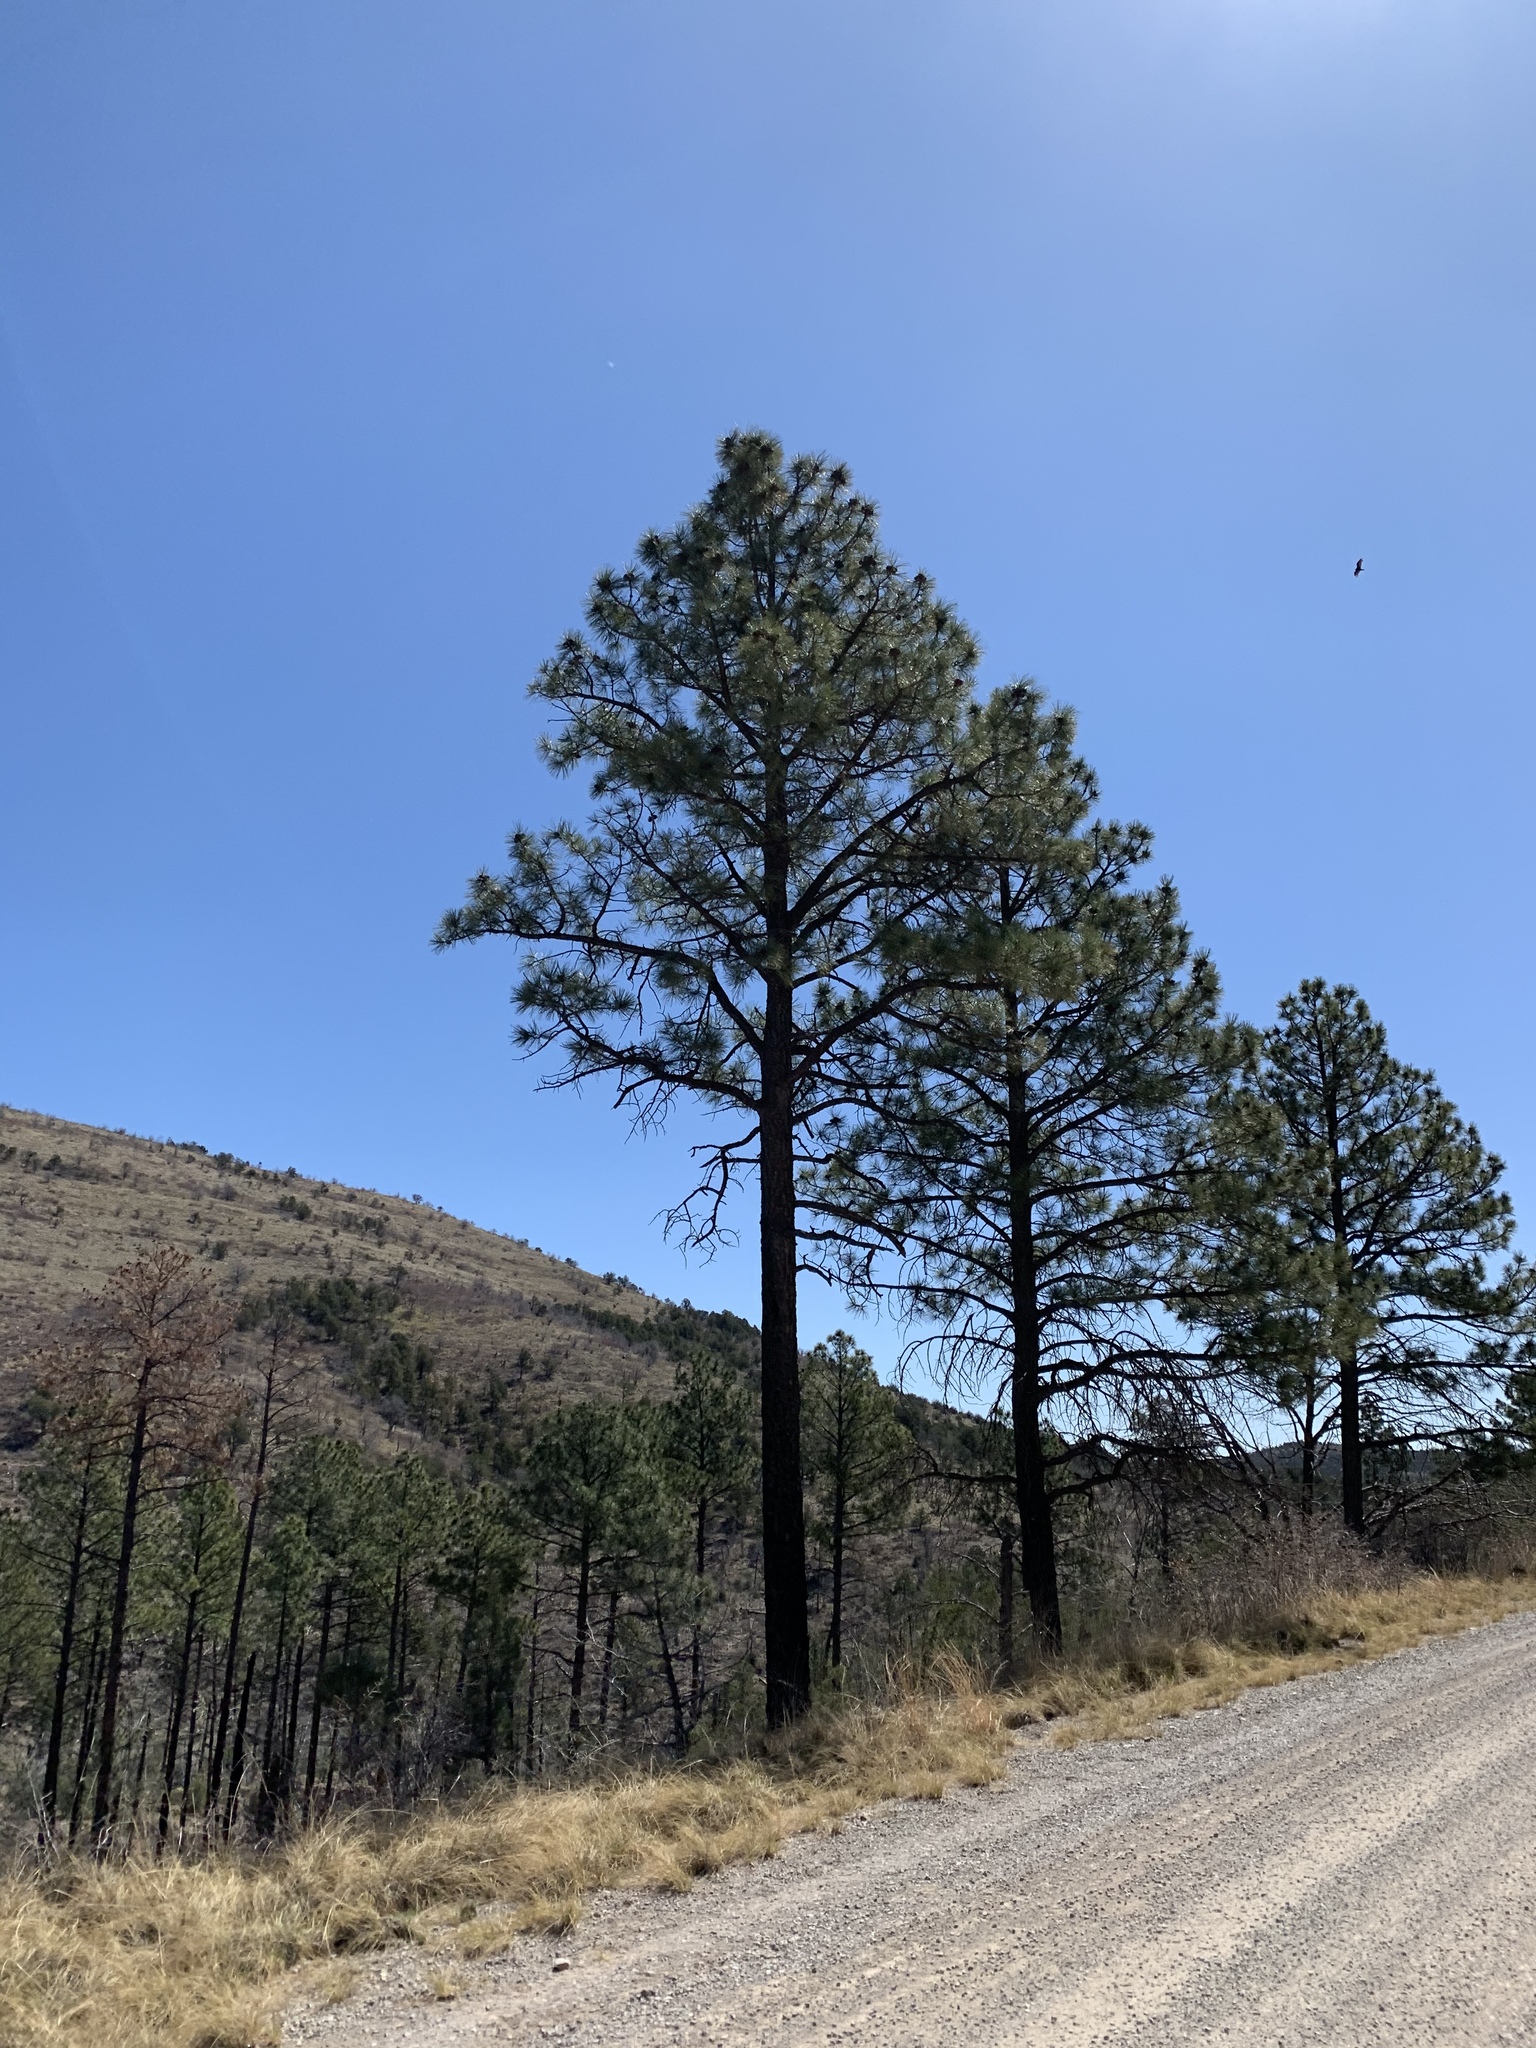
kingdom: Plantae
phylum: Tracheophyta
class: Pinopsida
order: Pinales
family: Pinaceae
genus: Pinus
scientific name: Pinus ponderosa
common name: Western yellow-pine
